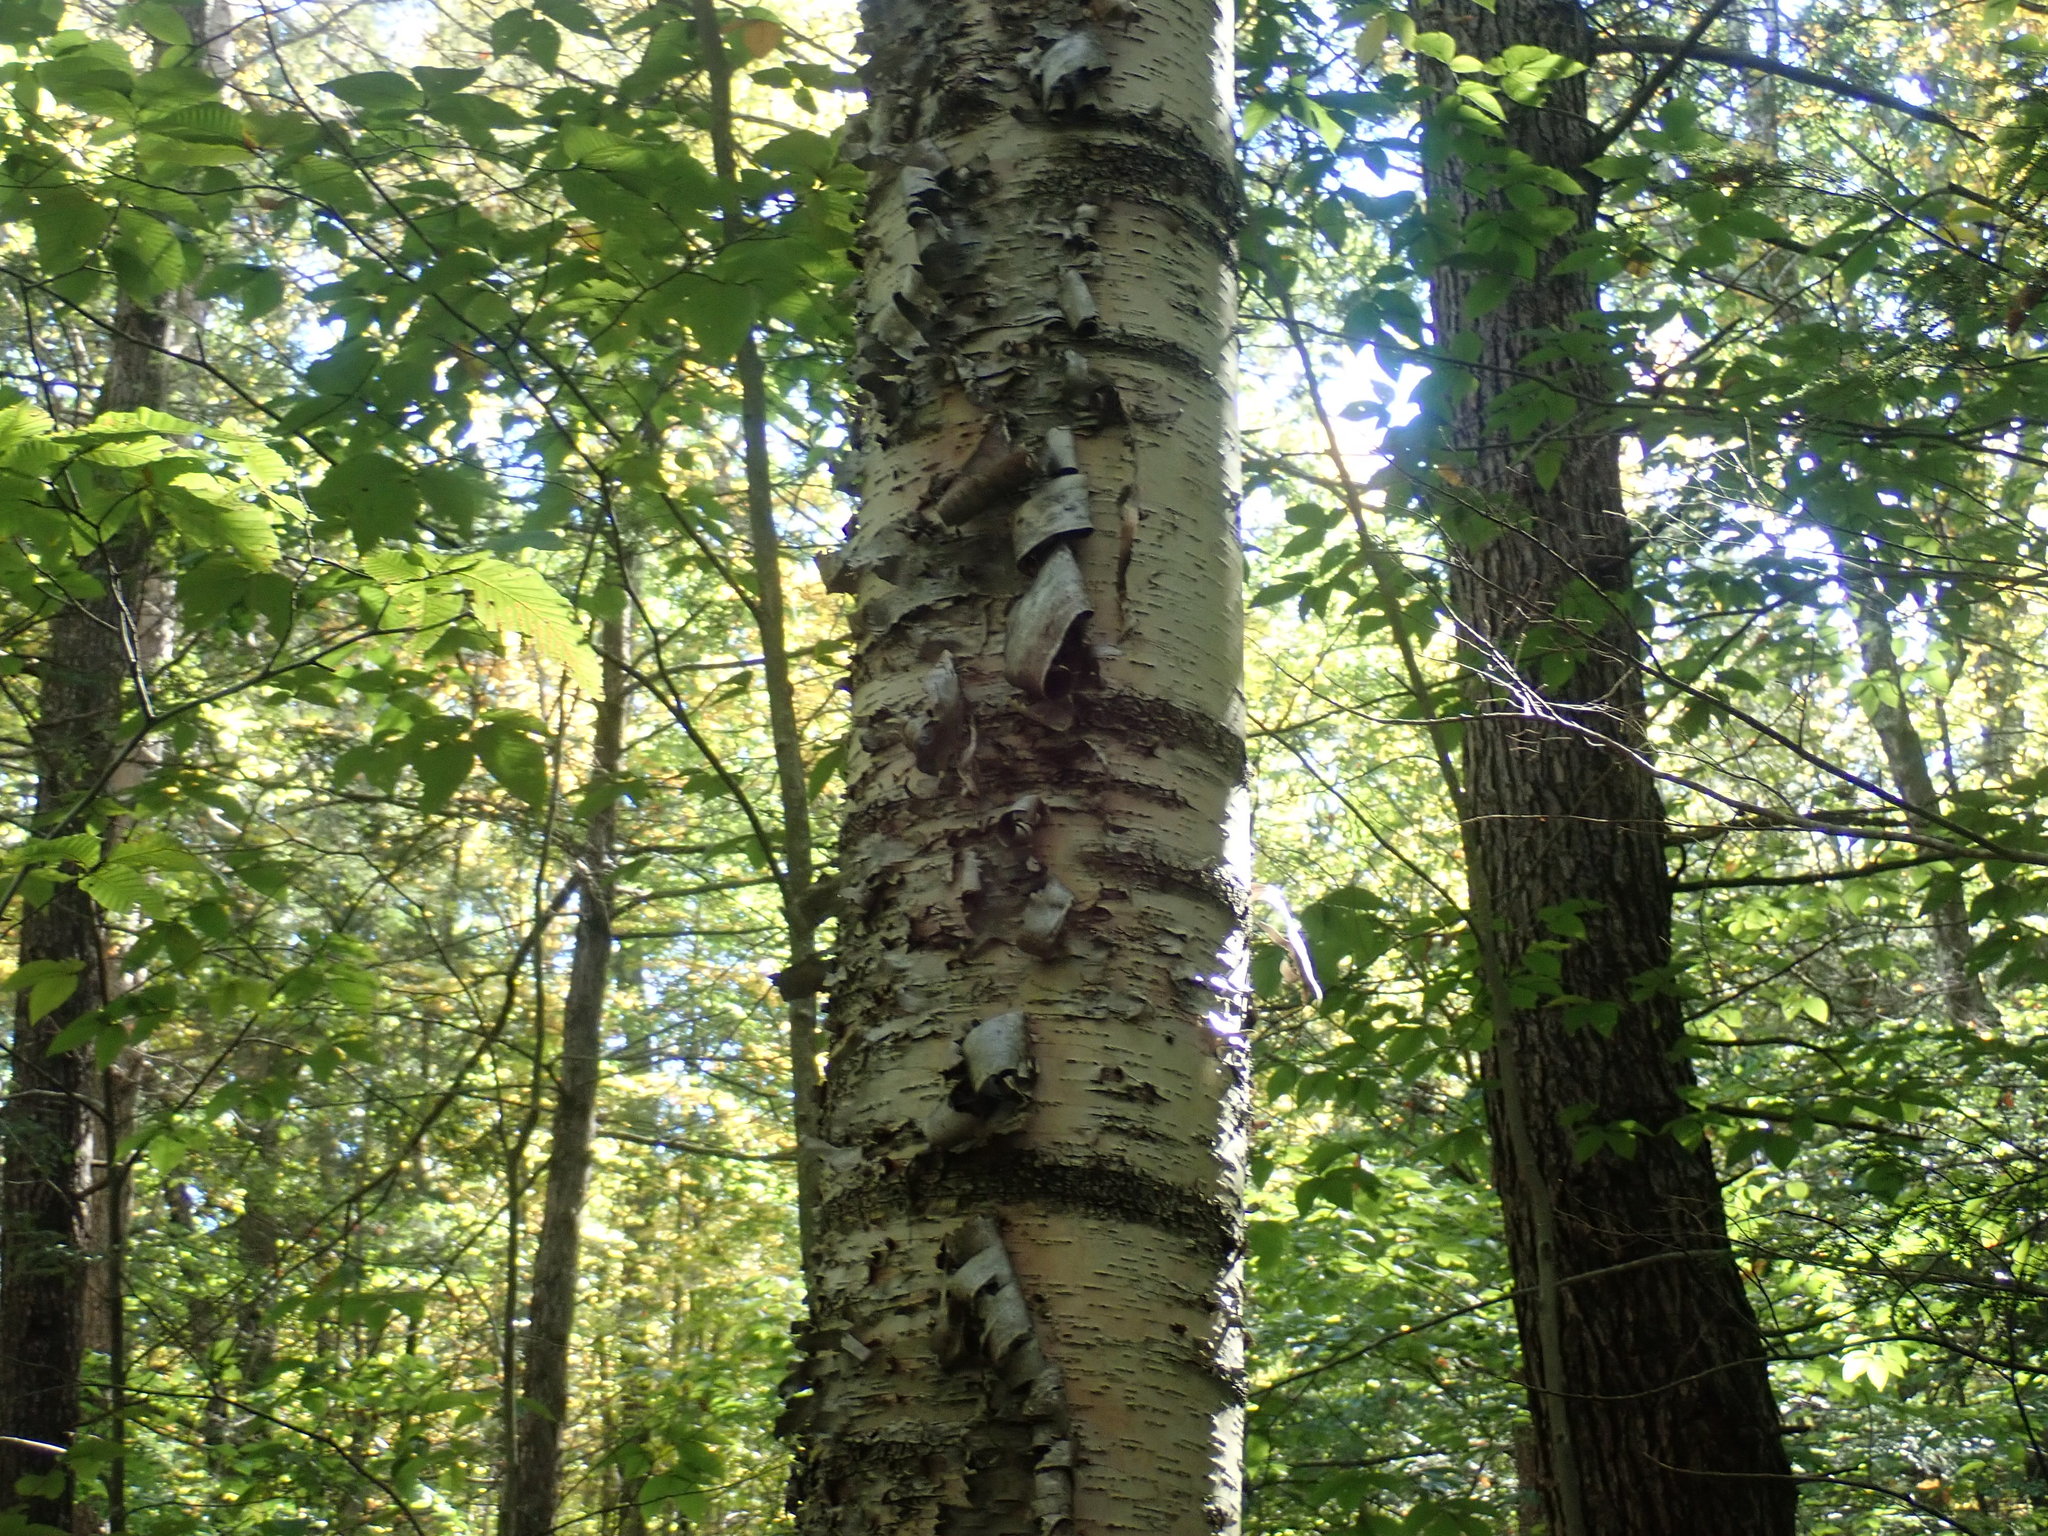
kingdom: Plantae
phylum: Tracheophyta
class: Magnoliopsida
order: Fagales
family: Betulaceae
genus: Betula
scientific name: Betula papyrifera
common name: Paper birch
